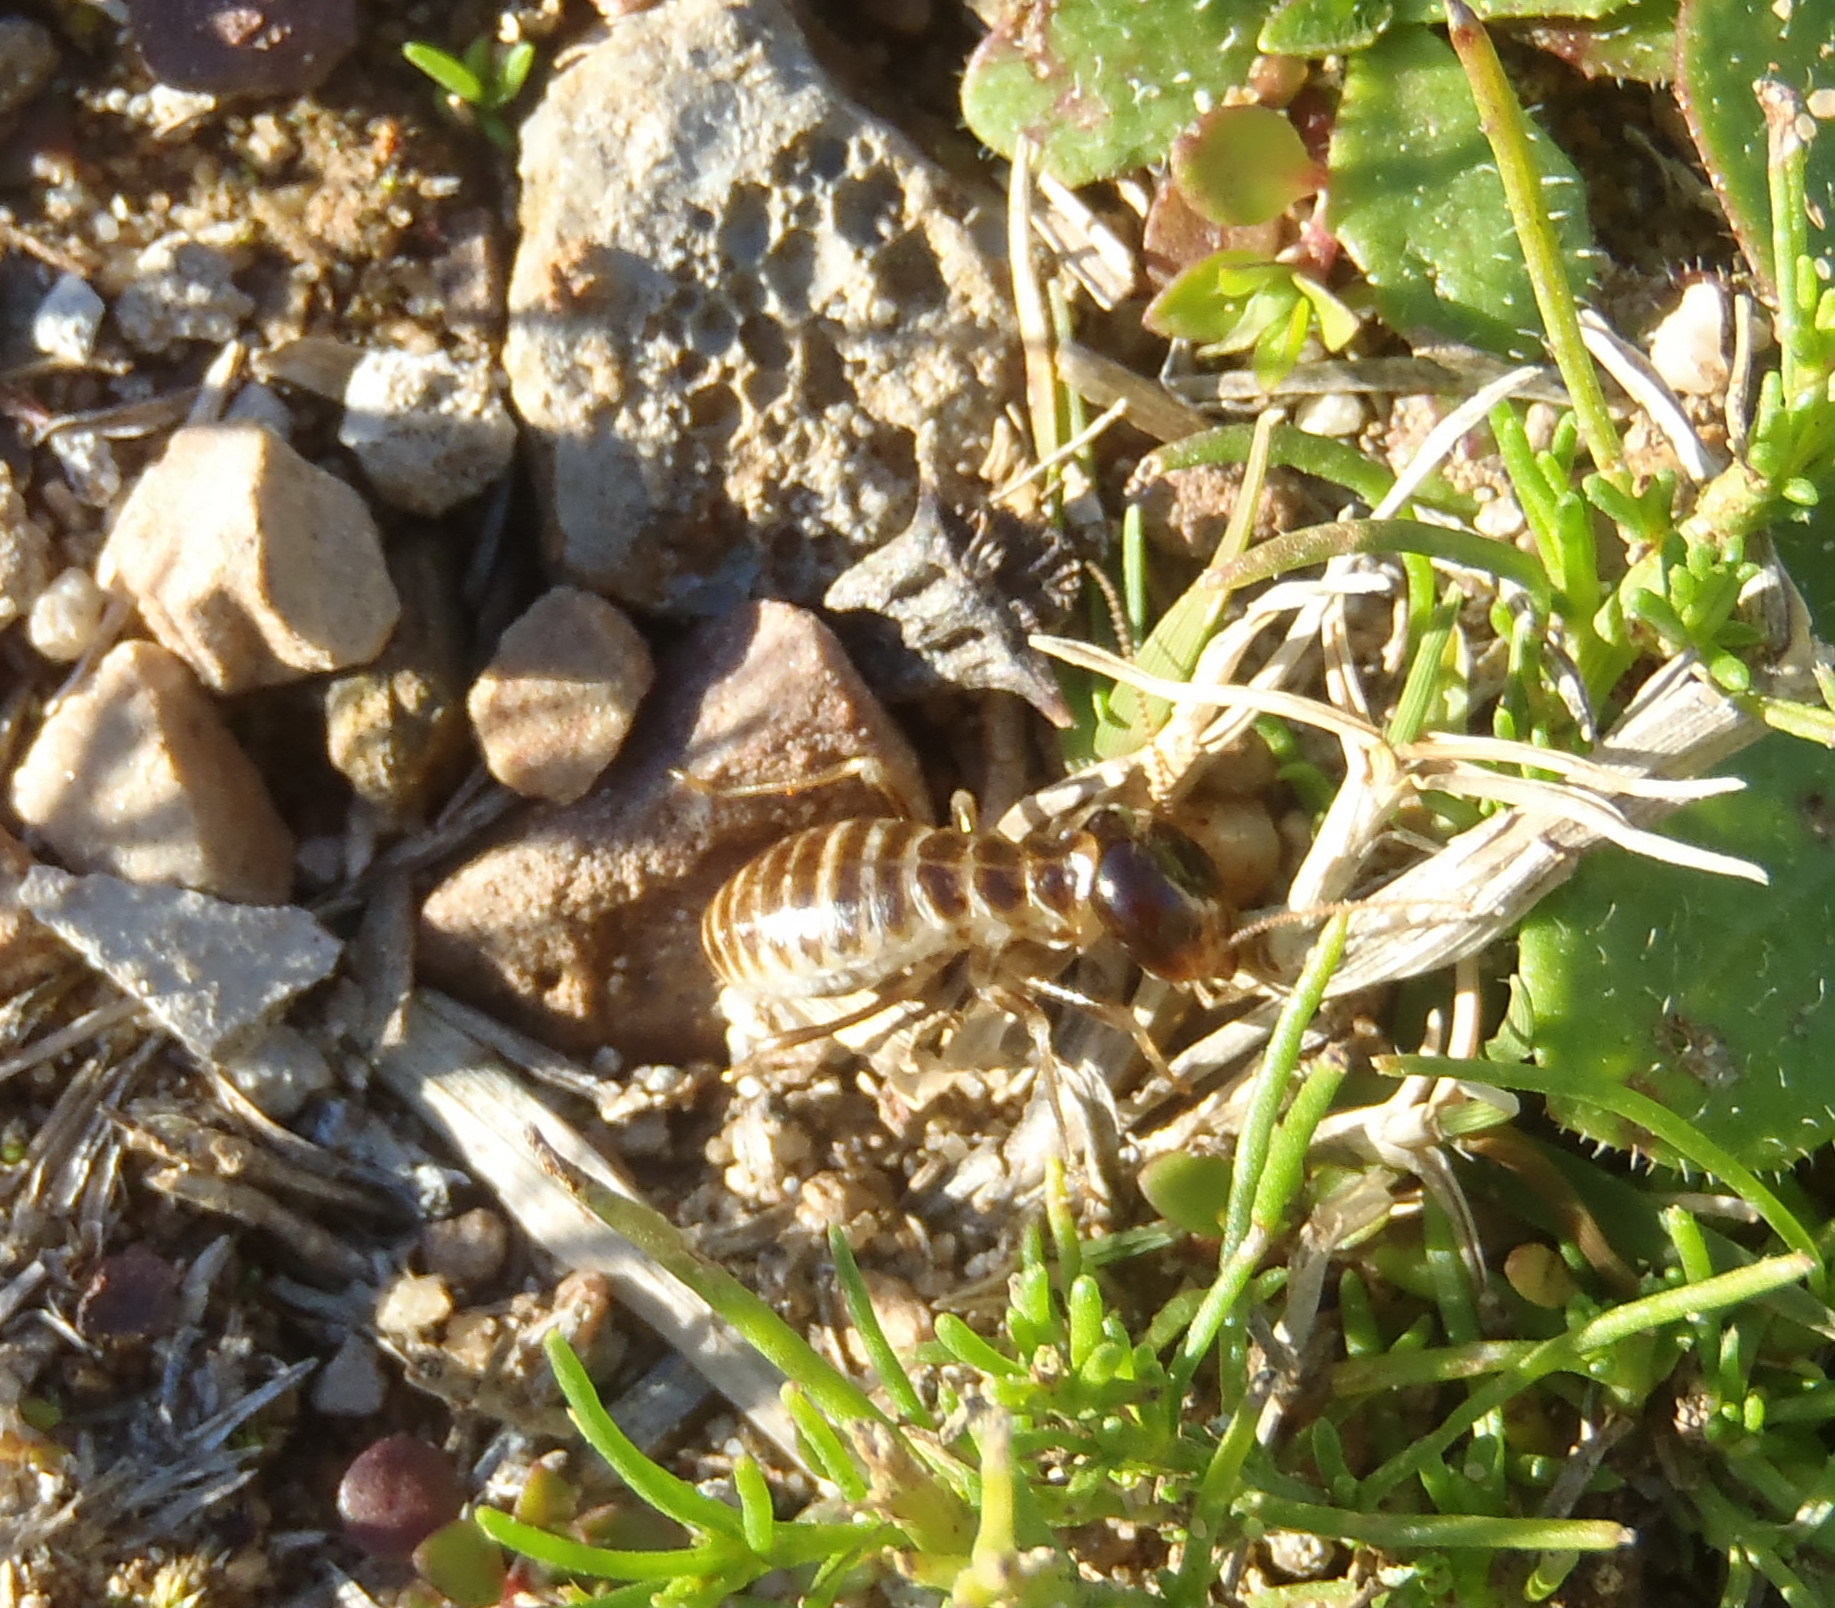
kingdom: Animalia
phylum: Arthropoda
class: Insecta
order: Blattodea
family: Hodotermitidae
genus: Hodotermes
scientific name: Hodotermes mossambicus
